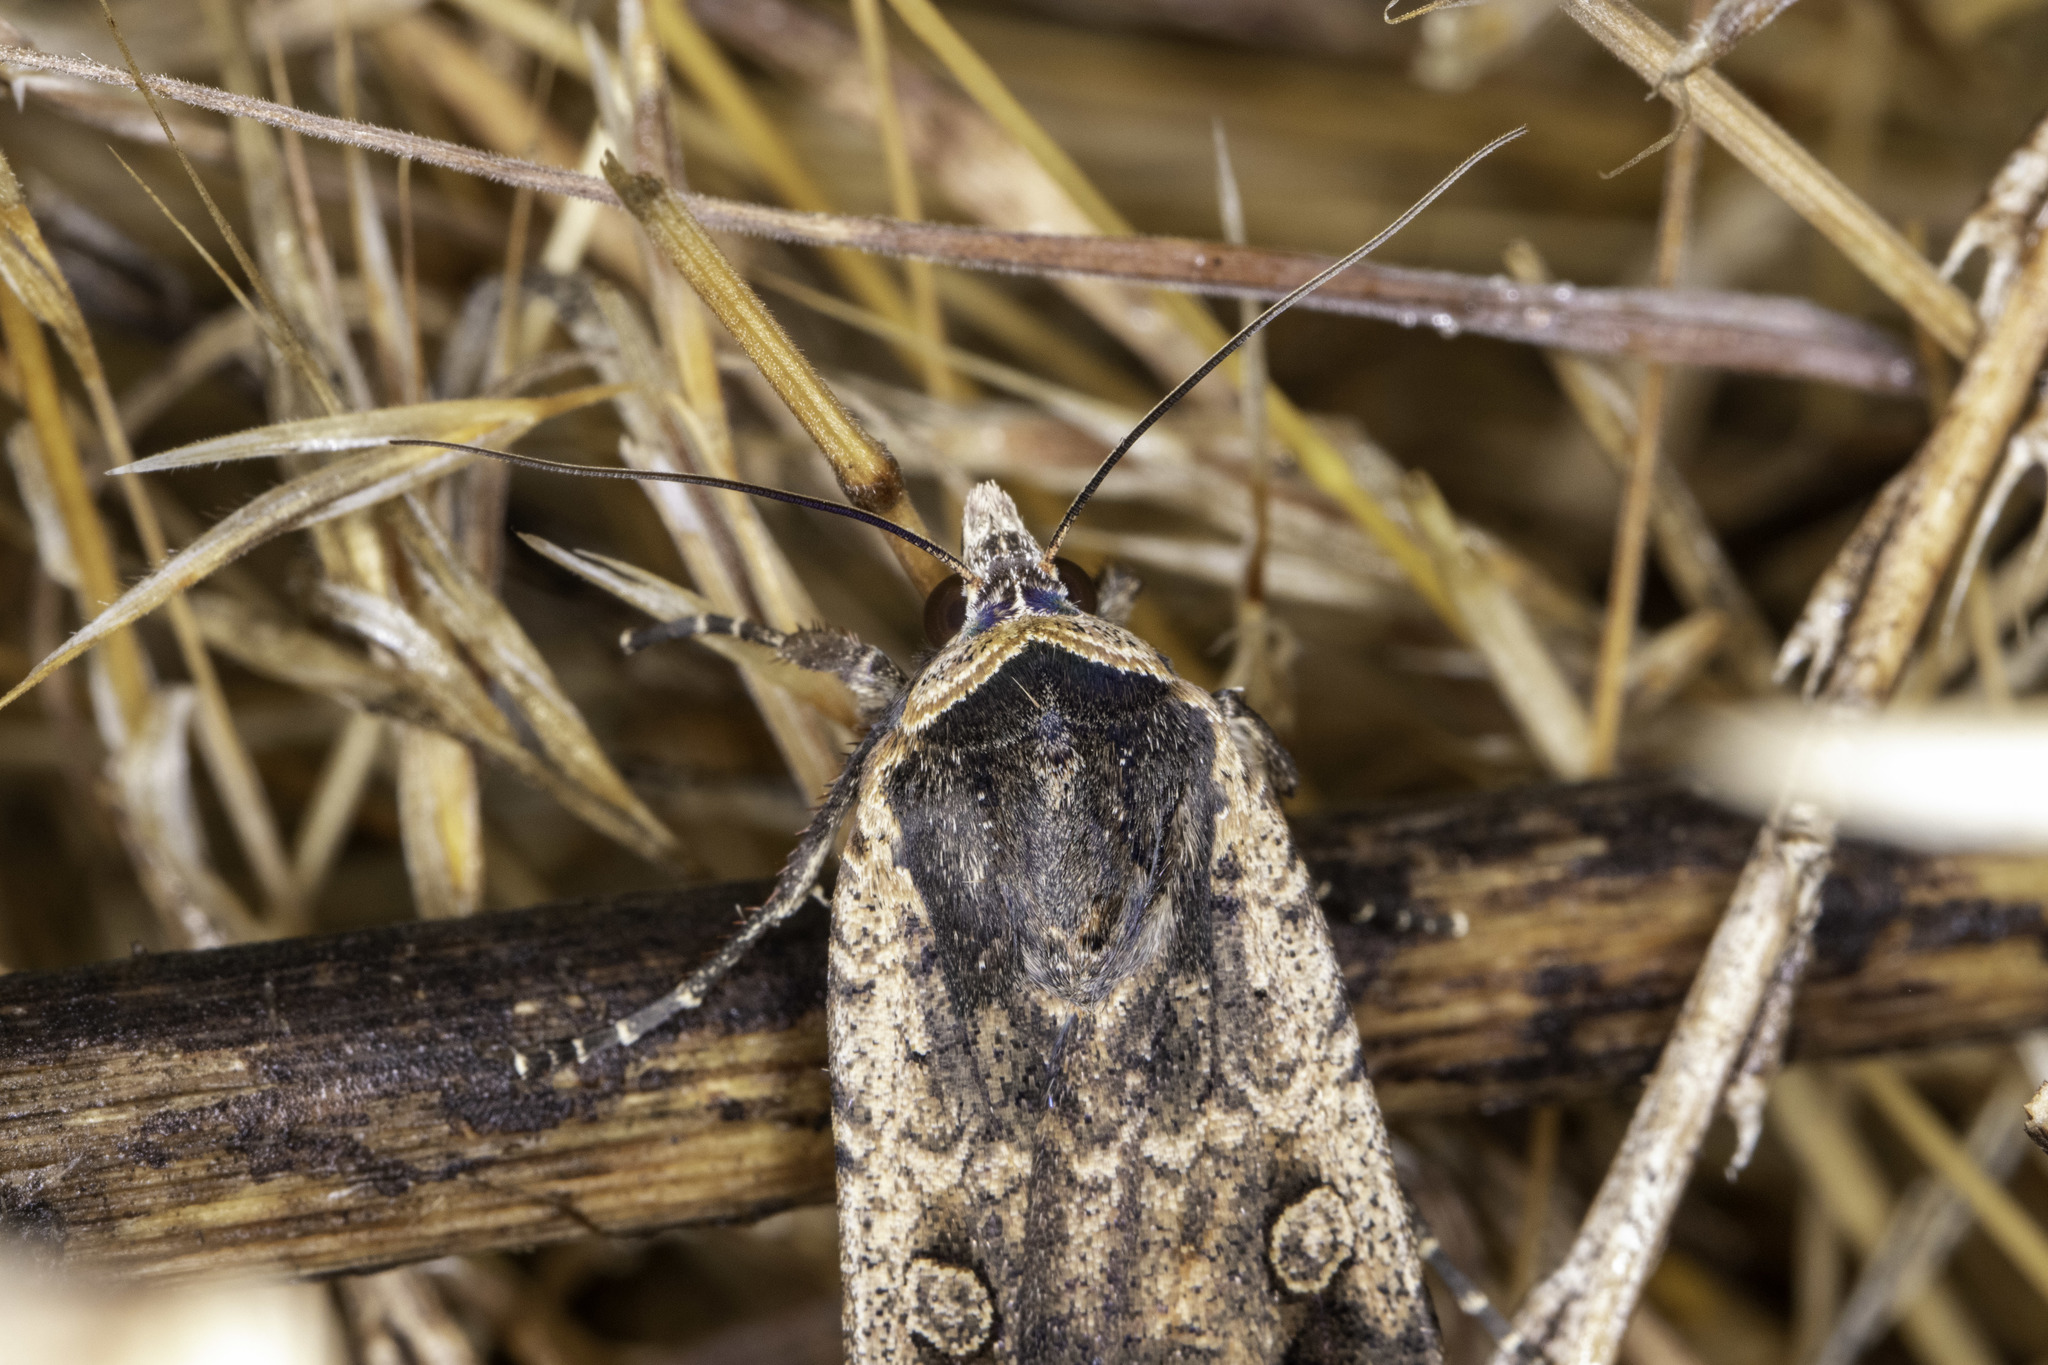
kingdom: Animalia
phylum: Arthropoda
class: Insecta
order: Lepidoptera
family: Noctuidae
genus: Noctua
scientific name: Noctua pronuba
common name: Large yellow underwing
